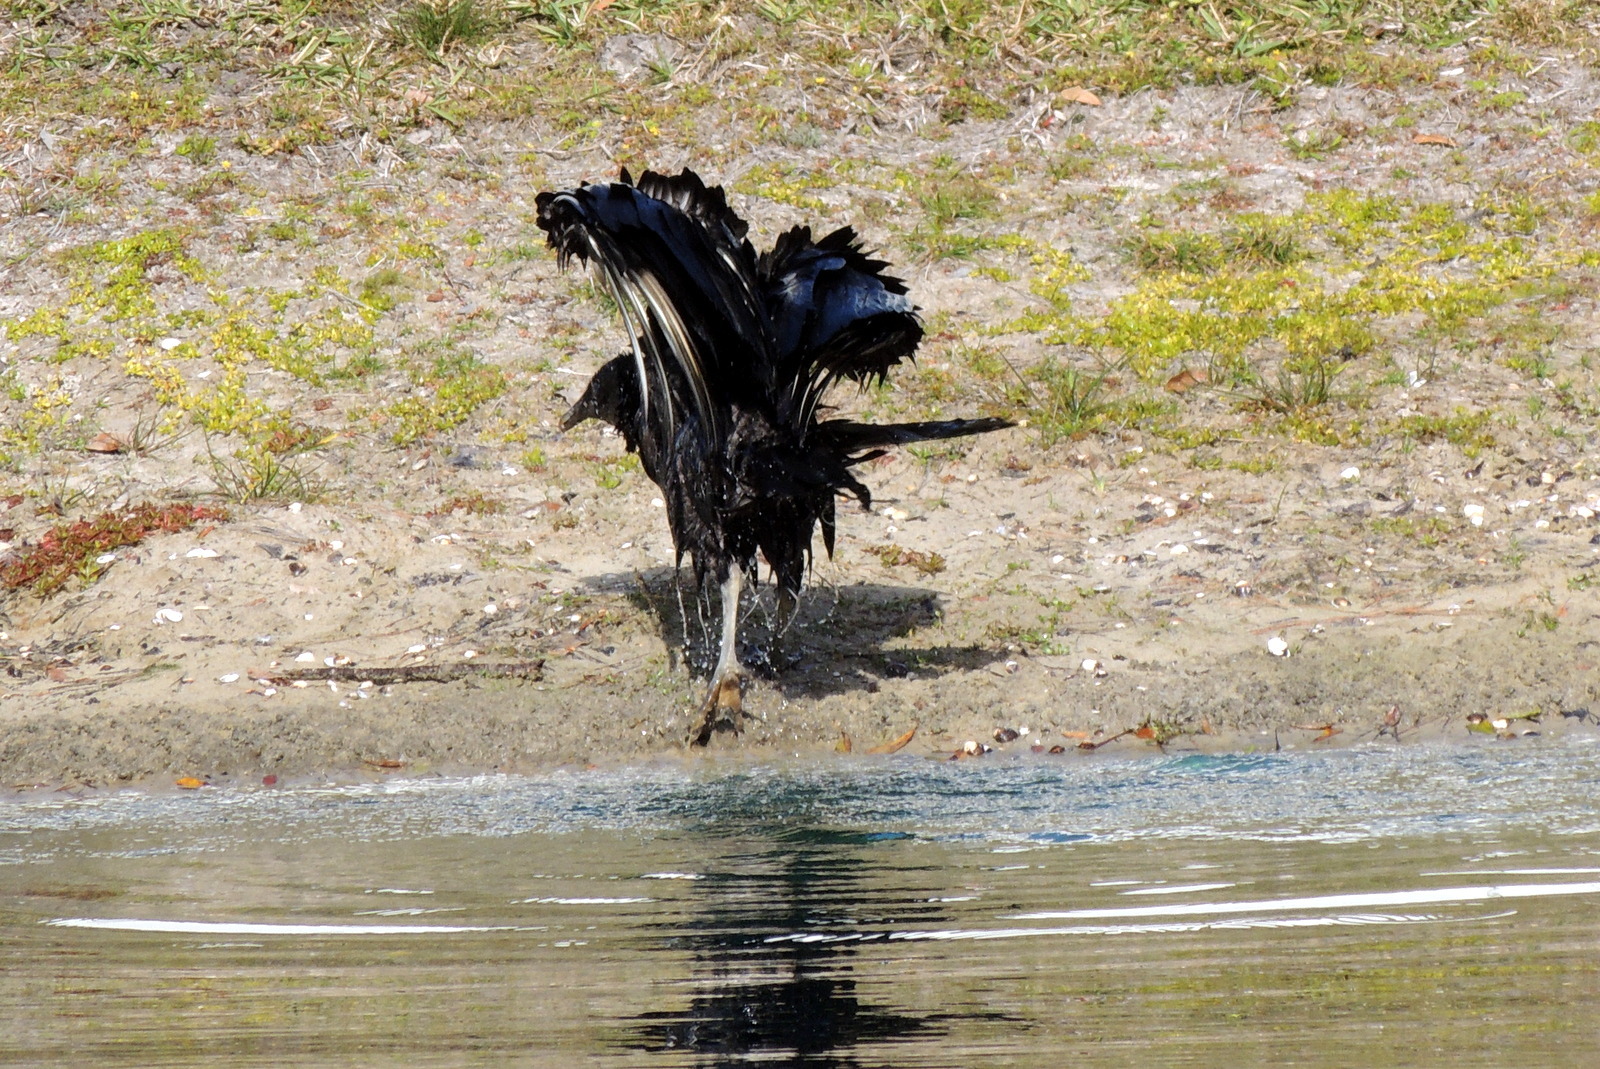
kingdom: Animalia
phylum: Chordata
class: Aves
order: Accipitriformes
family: Cathartidae
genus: Coragyps
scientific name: Coragyps atratus
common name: Black vulture
